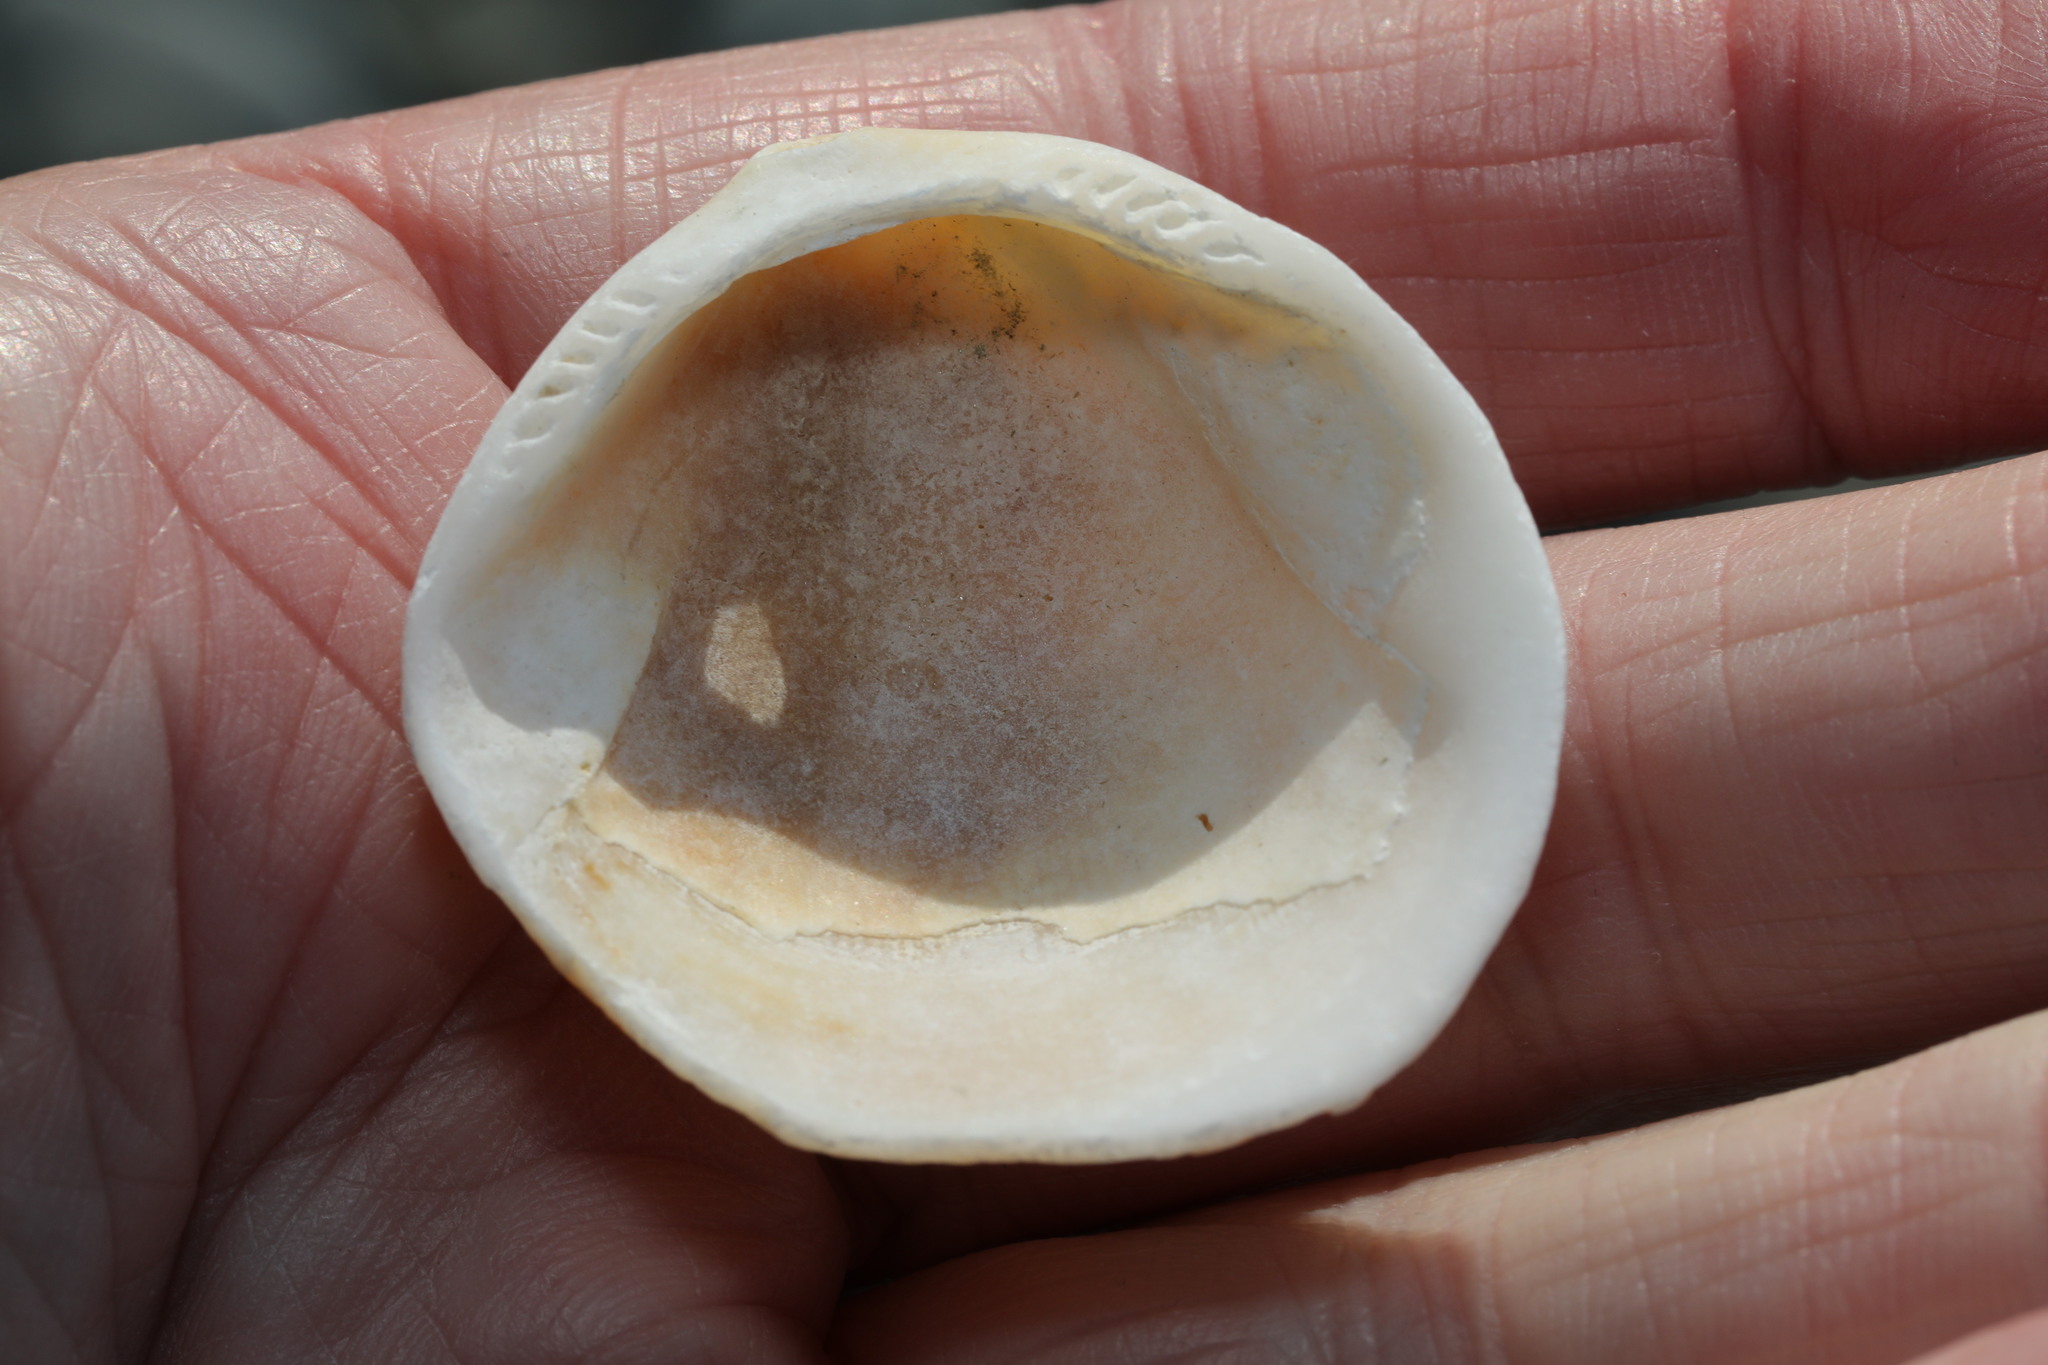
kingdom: Animalia
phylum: Mollusca
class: Bivalvia
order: Arcida
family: Glycymerididae
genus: Glycymeris
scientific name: Glycymeris glycymeris
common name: Dog-cockle
